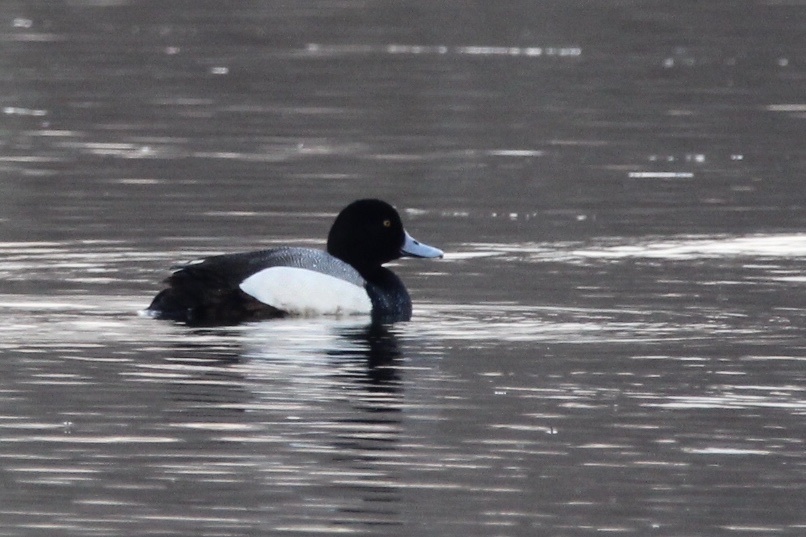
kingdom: Animalia
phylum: Chordata
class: Aves
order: Anseriformes
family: Anatidae
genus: Aythya
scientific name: Aythya marila
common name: Greater scaup
